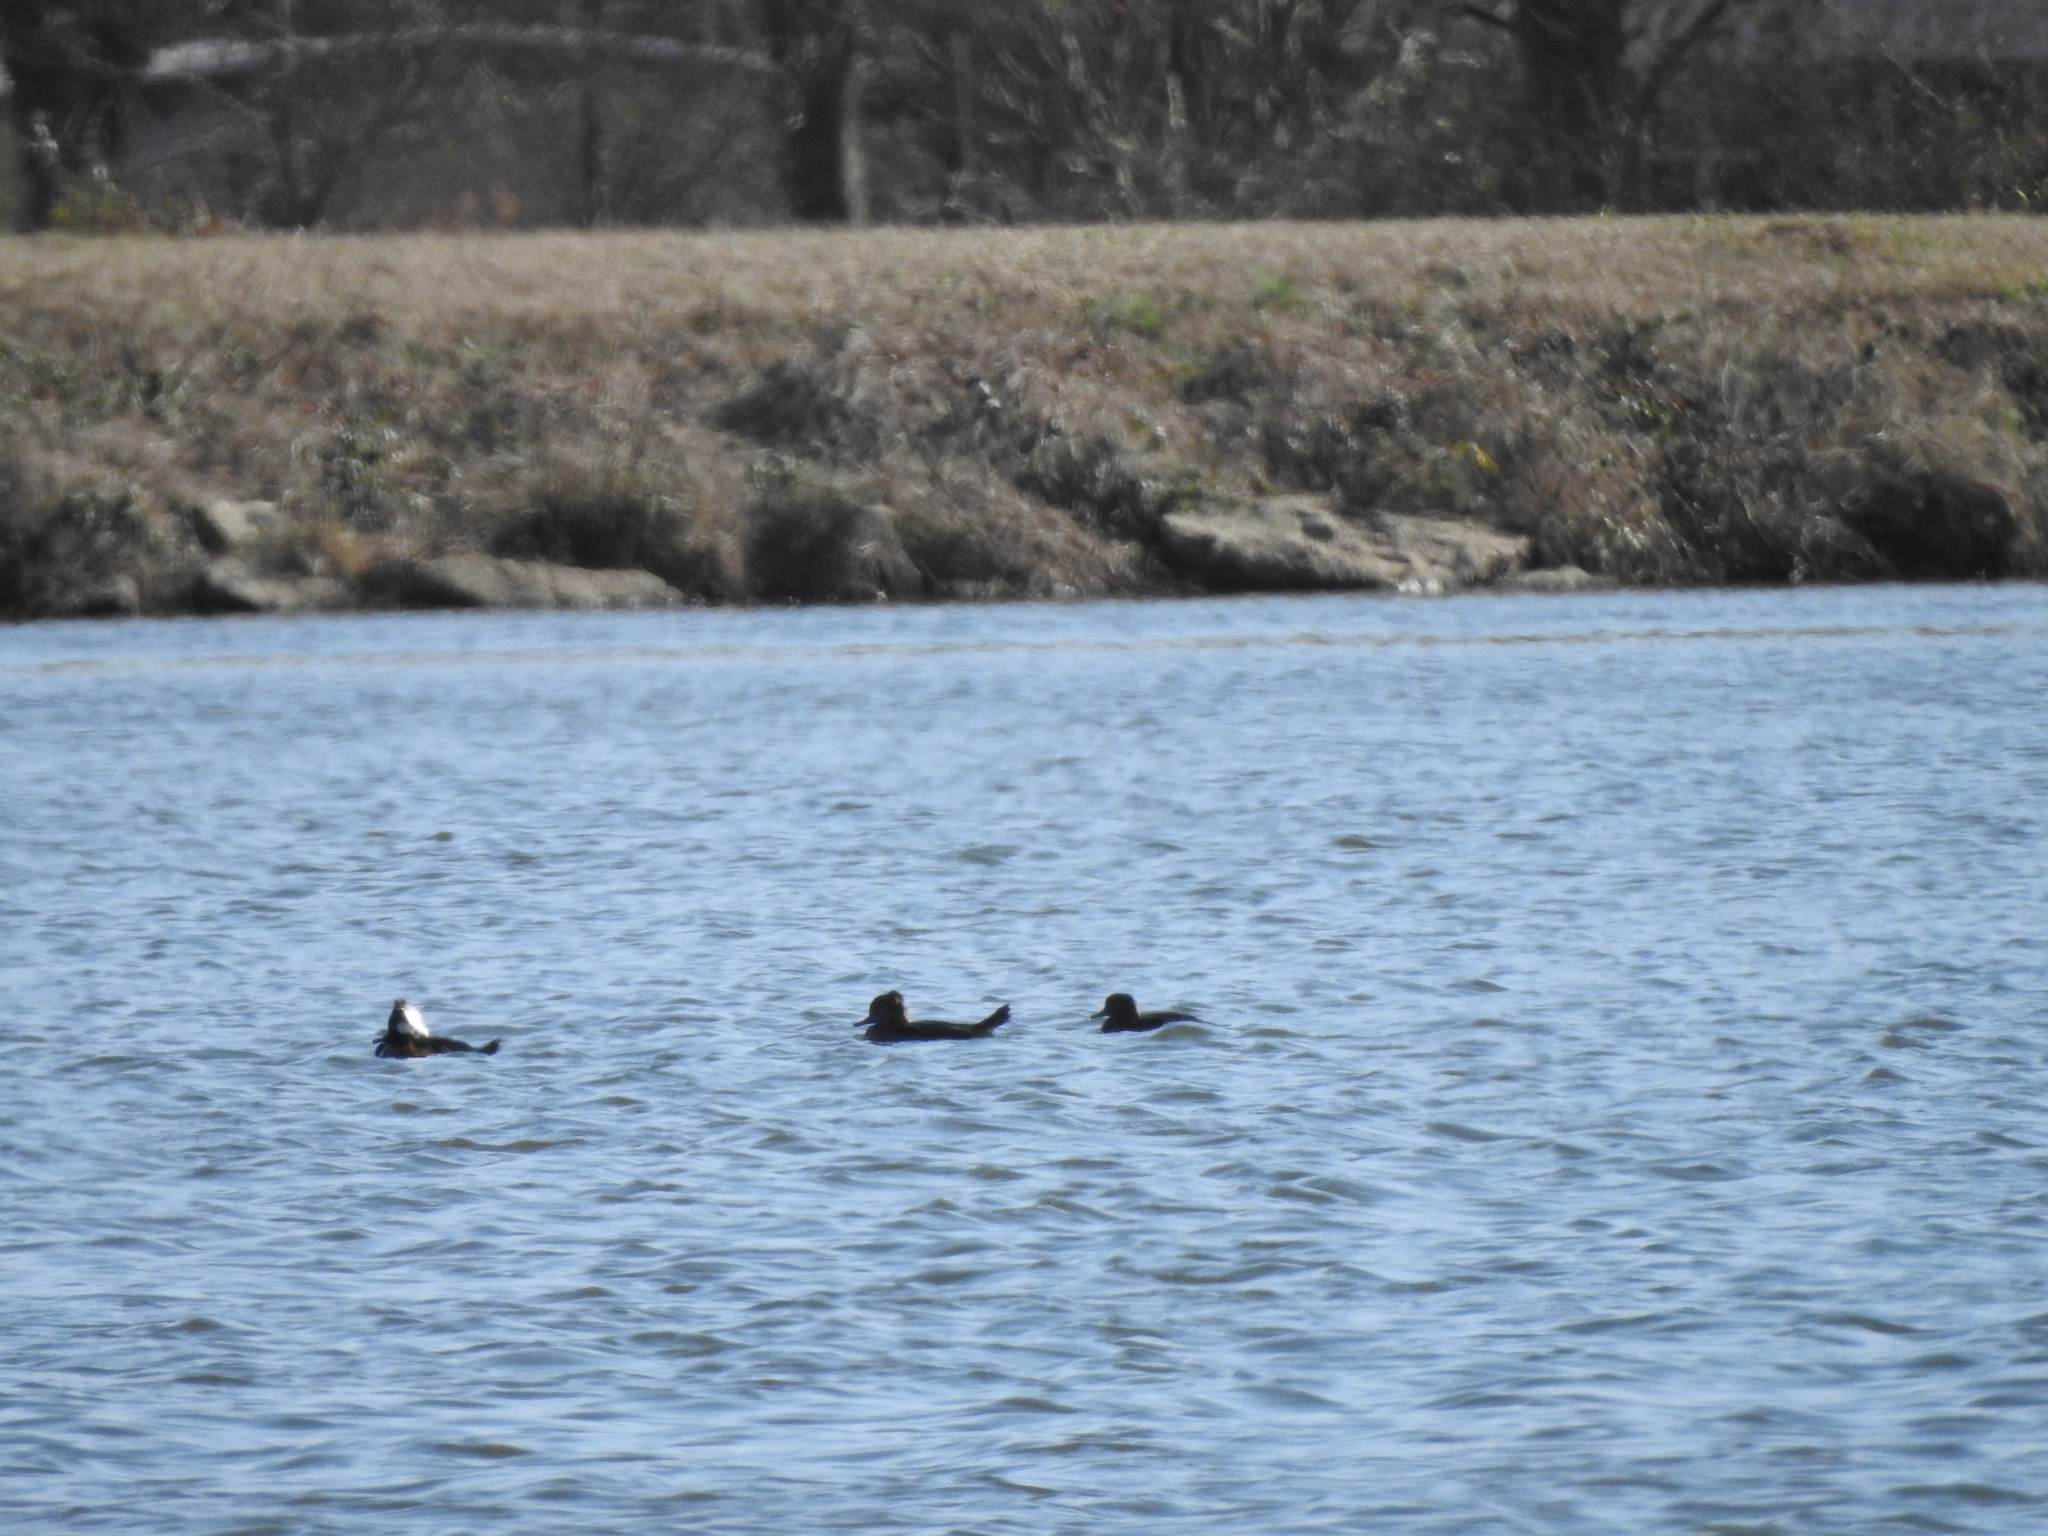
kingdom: Animalia
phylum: Chordata
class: Aves
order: Anseriformes
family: Anatidae
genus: Lophodytes
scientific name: Lophodytes cucullatus
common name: Hooded merganser
